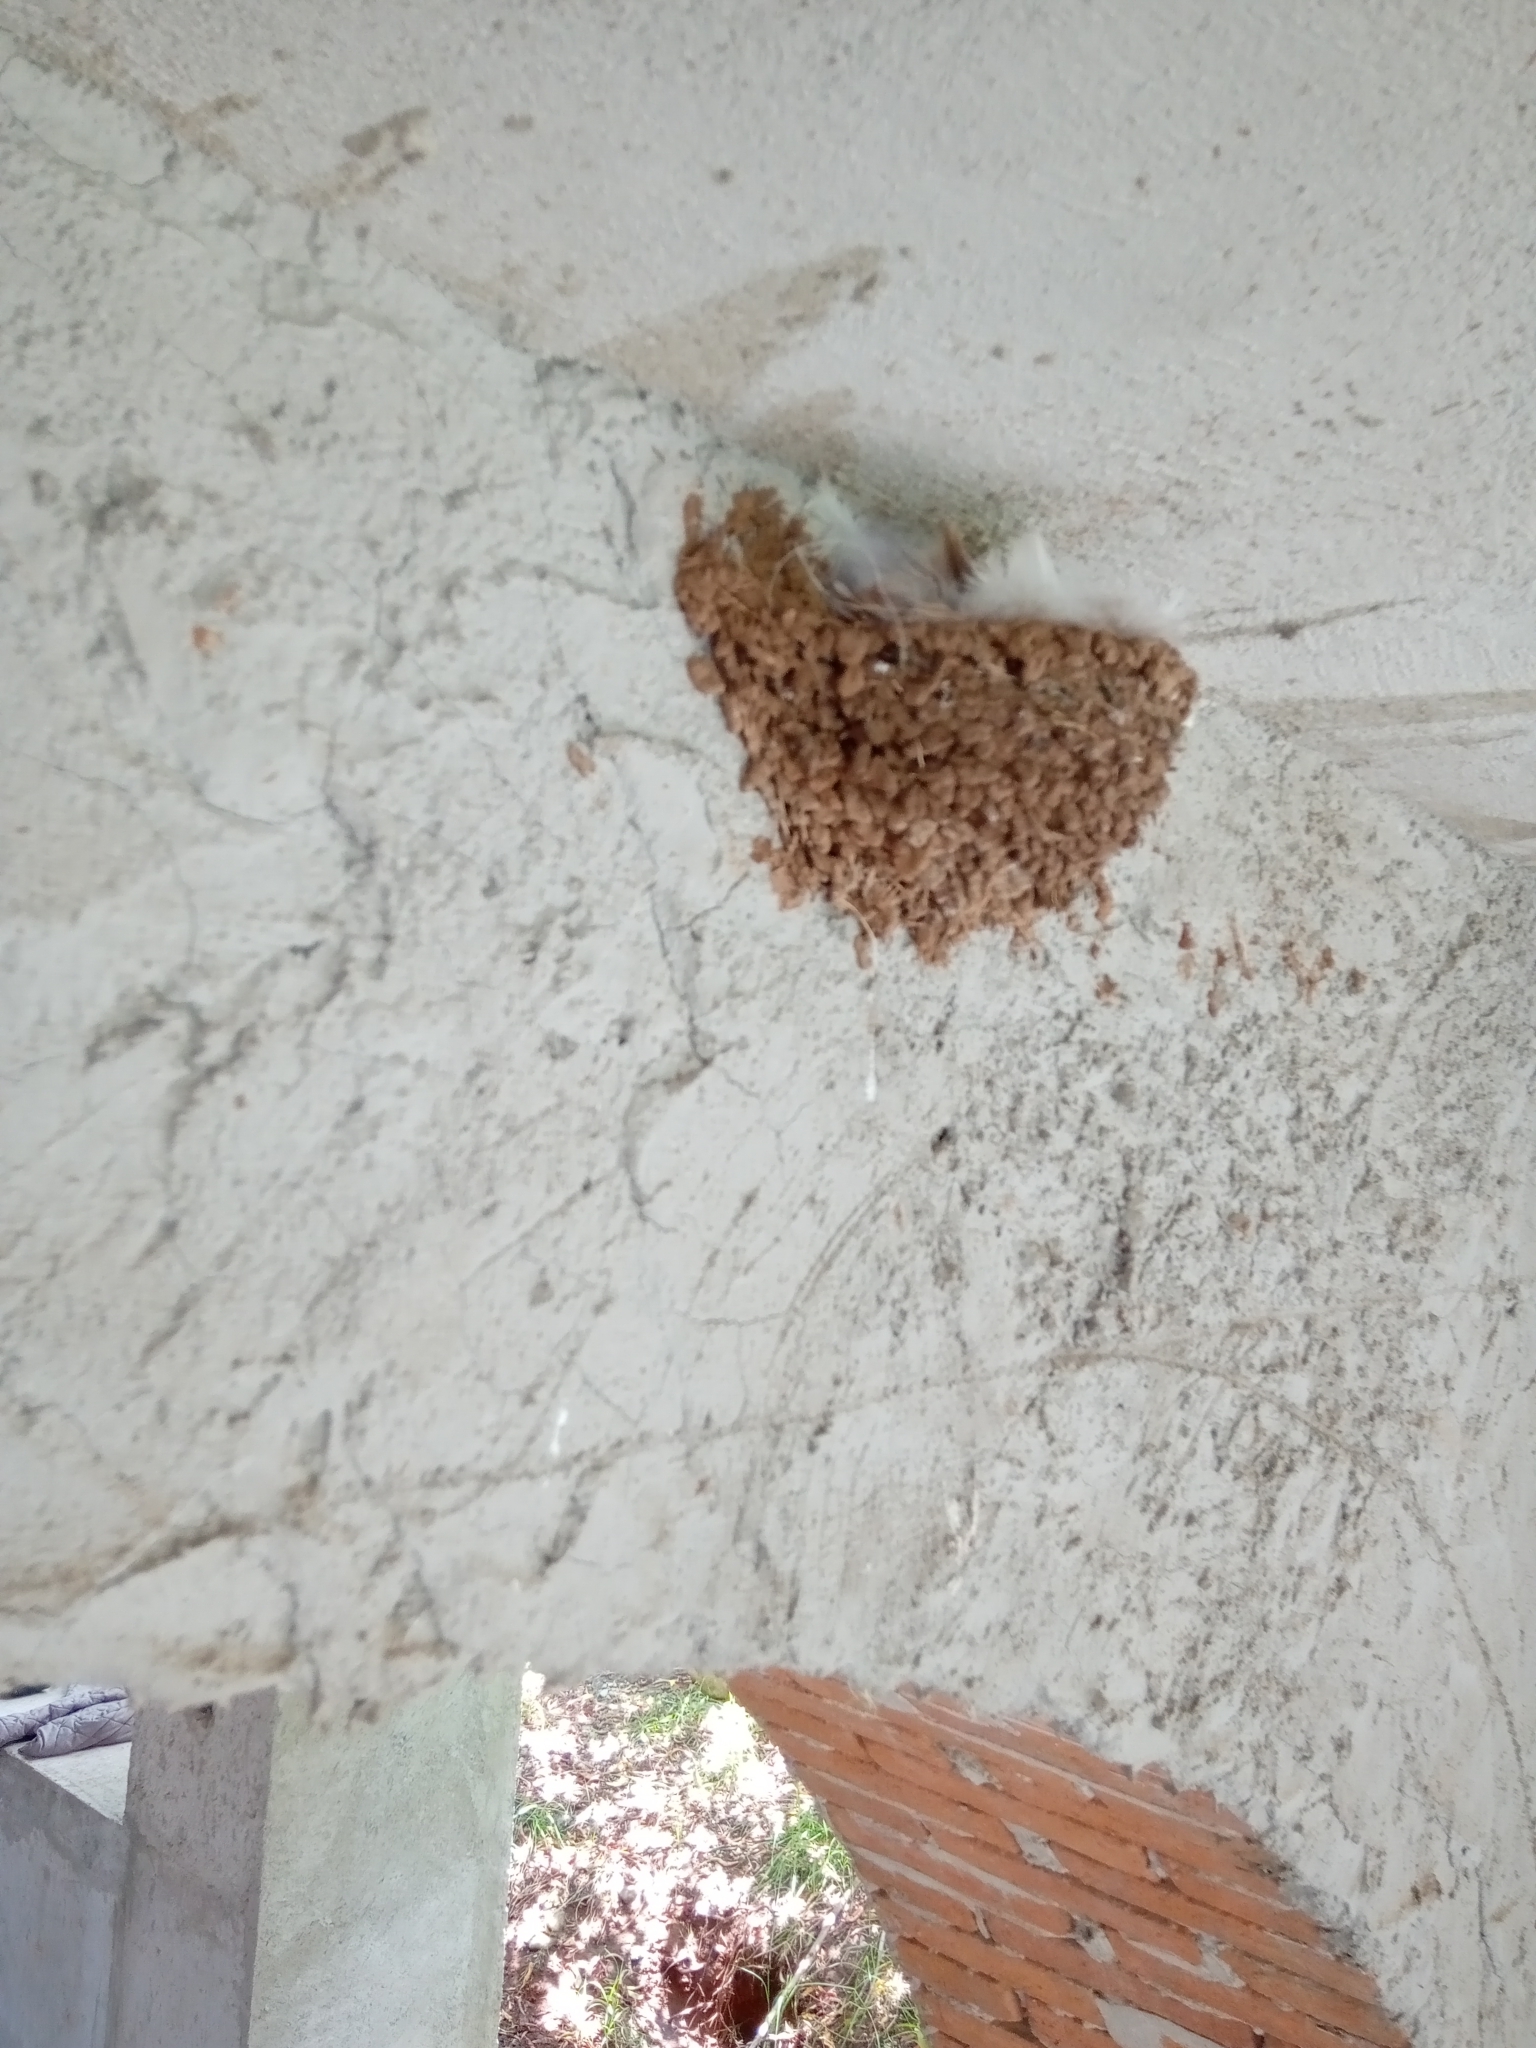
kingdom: Animalia
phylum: Chordata
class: Aves
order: Passeriformes
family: Hirundinidae
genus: Hirundo
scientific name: Hirundo rustica
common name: Barn swallow
